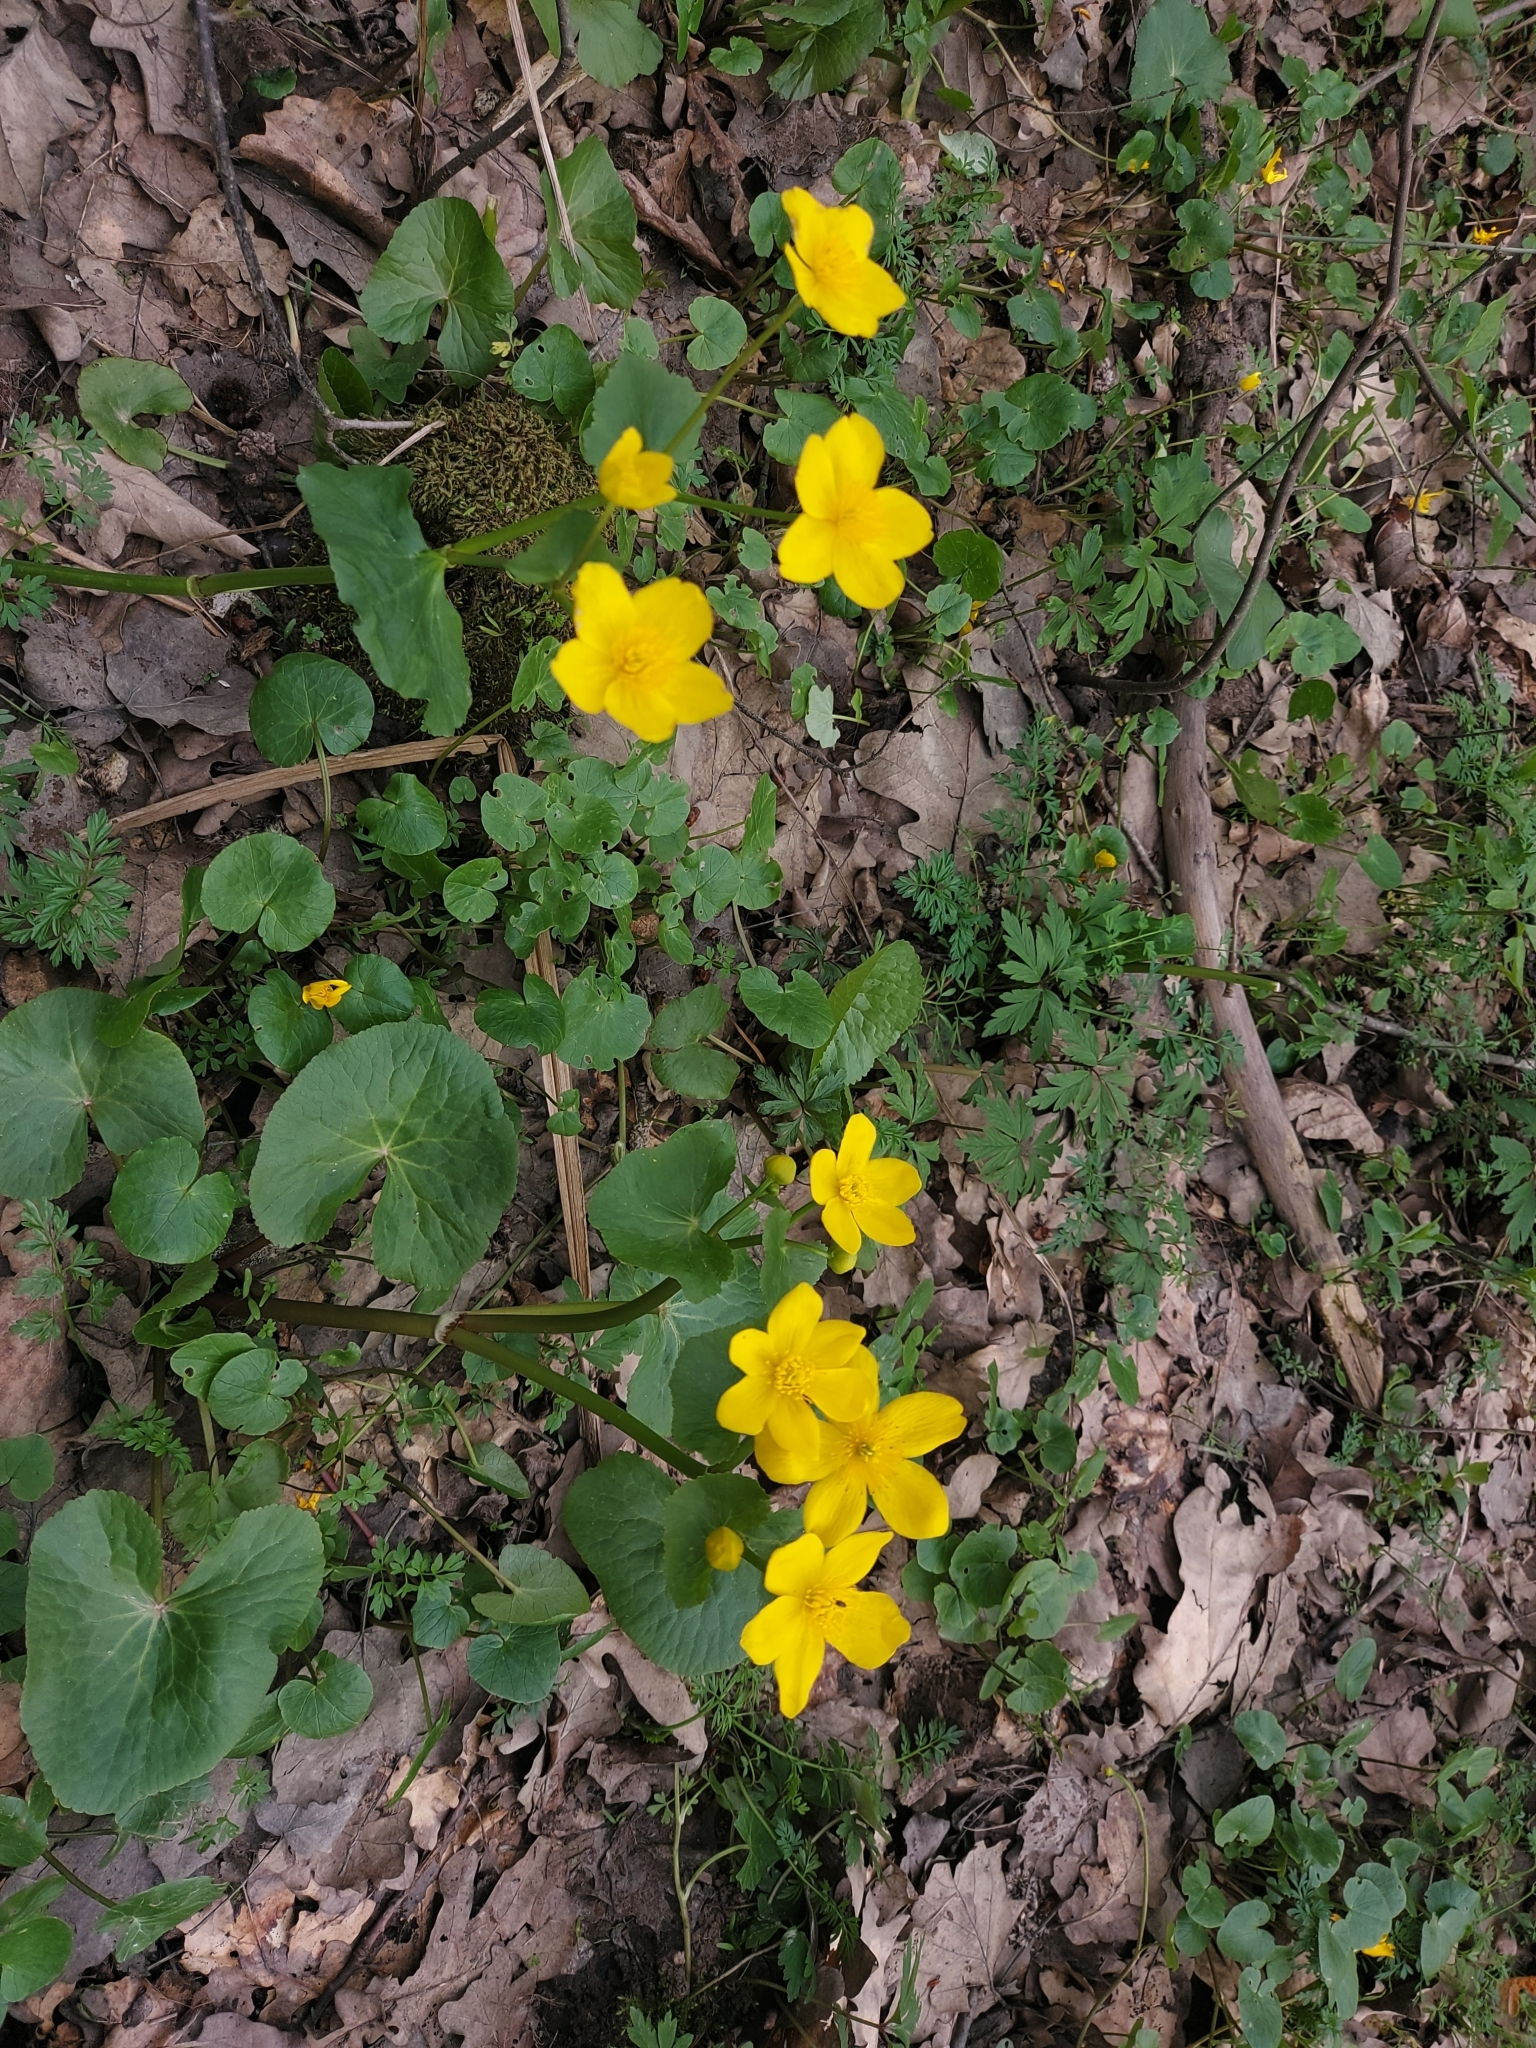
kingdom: Plantae
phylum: Tracheophyta
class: Magnoliopsida
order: Ranunculales
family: Ranunculaceae
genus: Caltha
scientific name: Caltha palustris
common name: Marsh marigold
